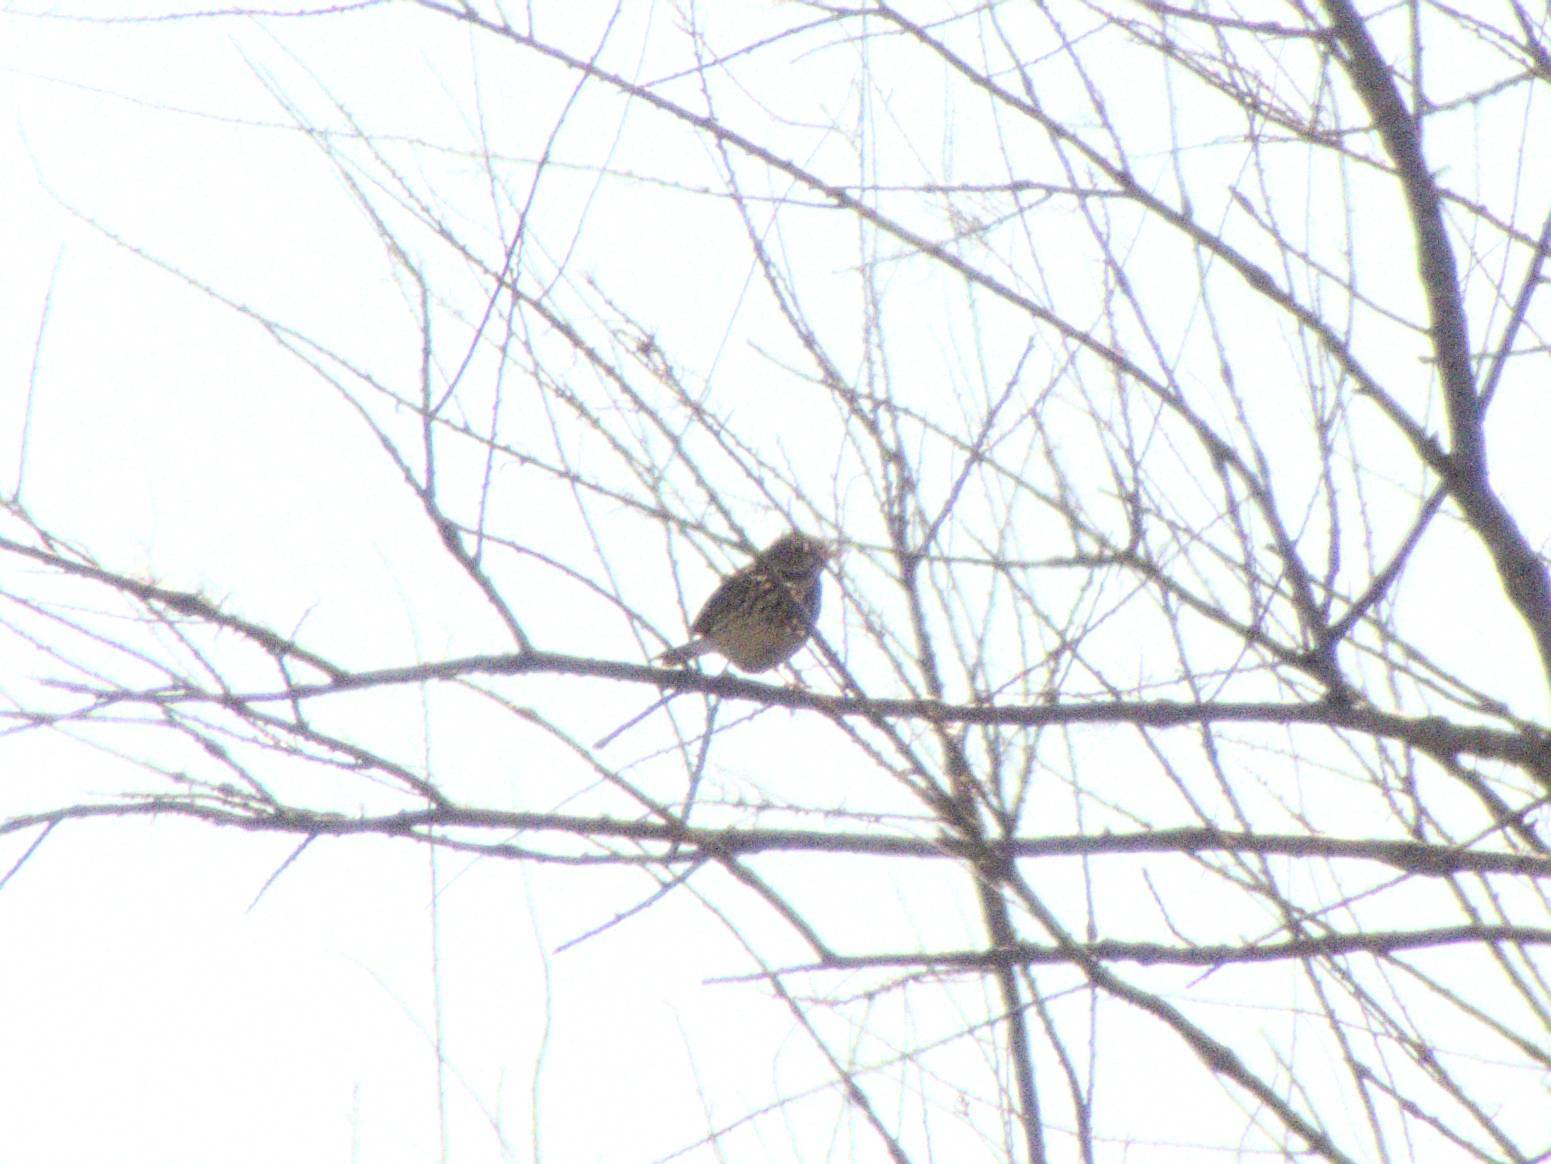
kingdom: Animalia
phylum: Chordata
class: Aves
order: Passeriformes
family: Motacillidae
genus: Anthus
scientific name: Anthus pratensis
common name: Meadow pipit
